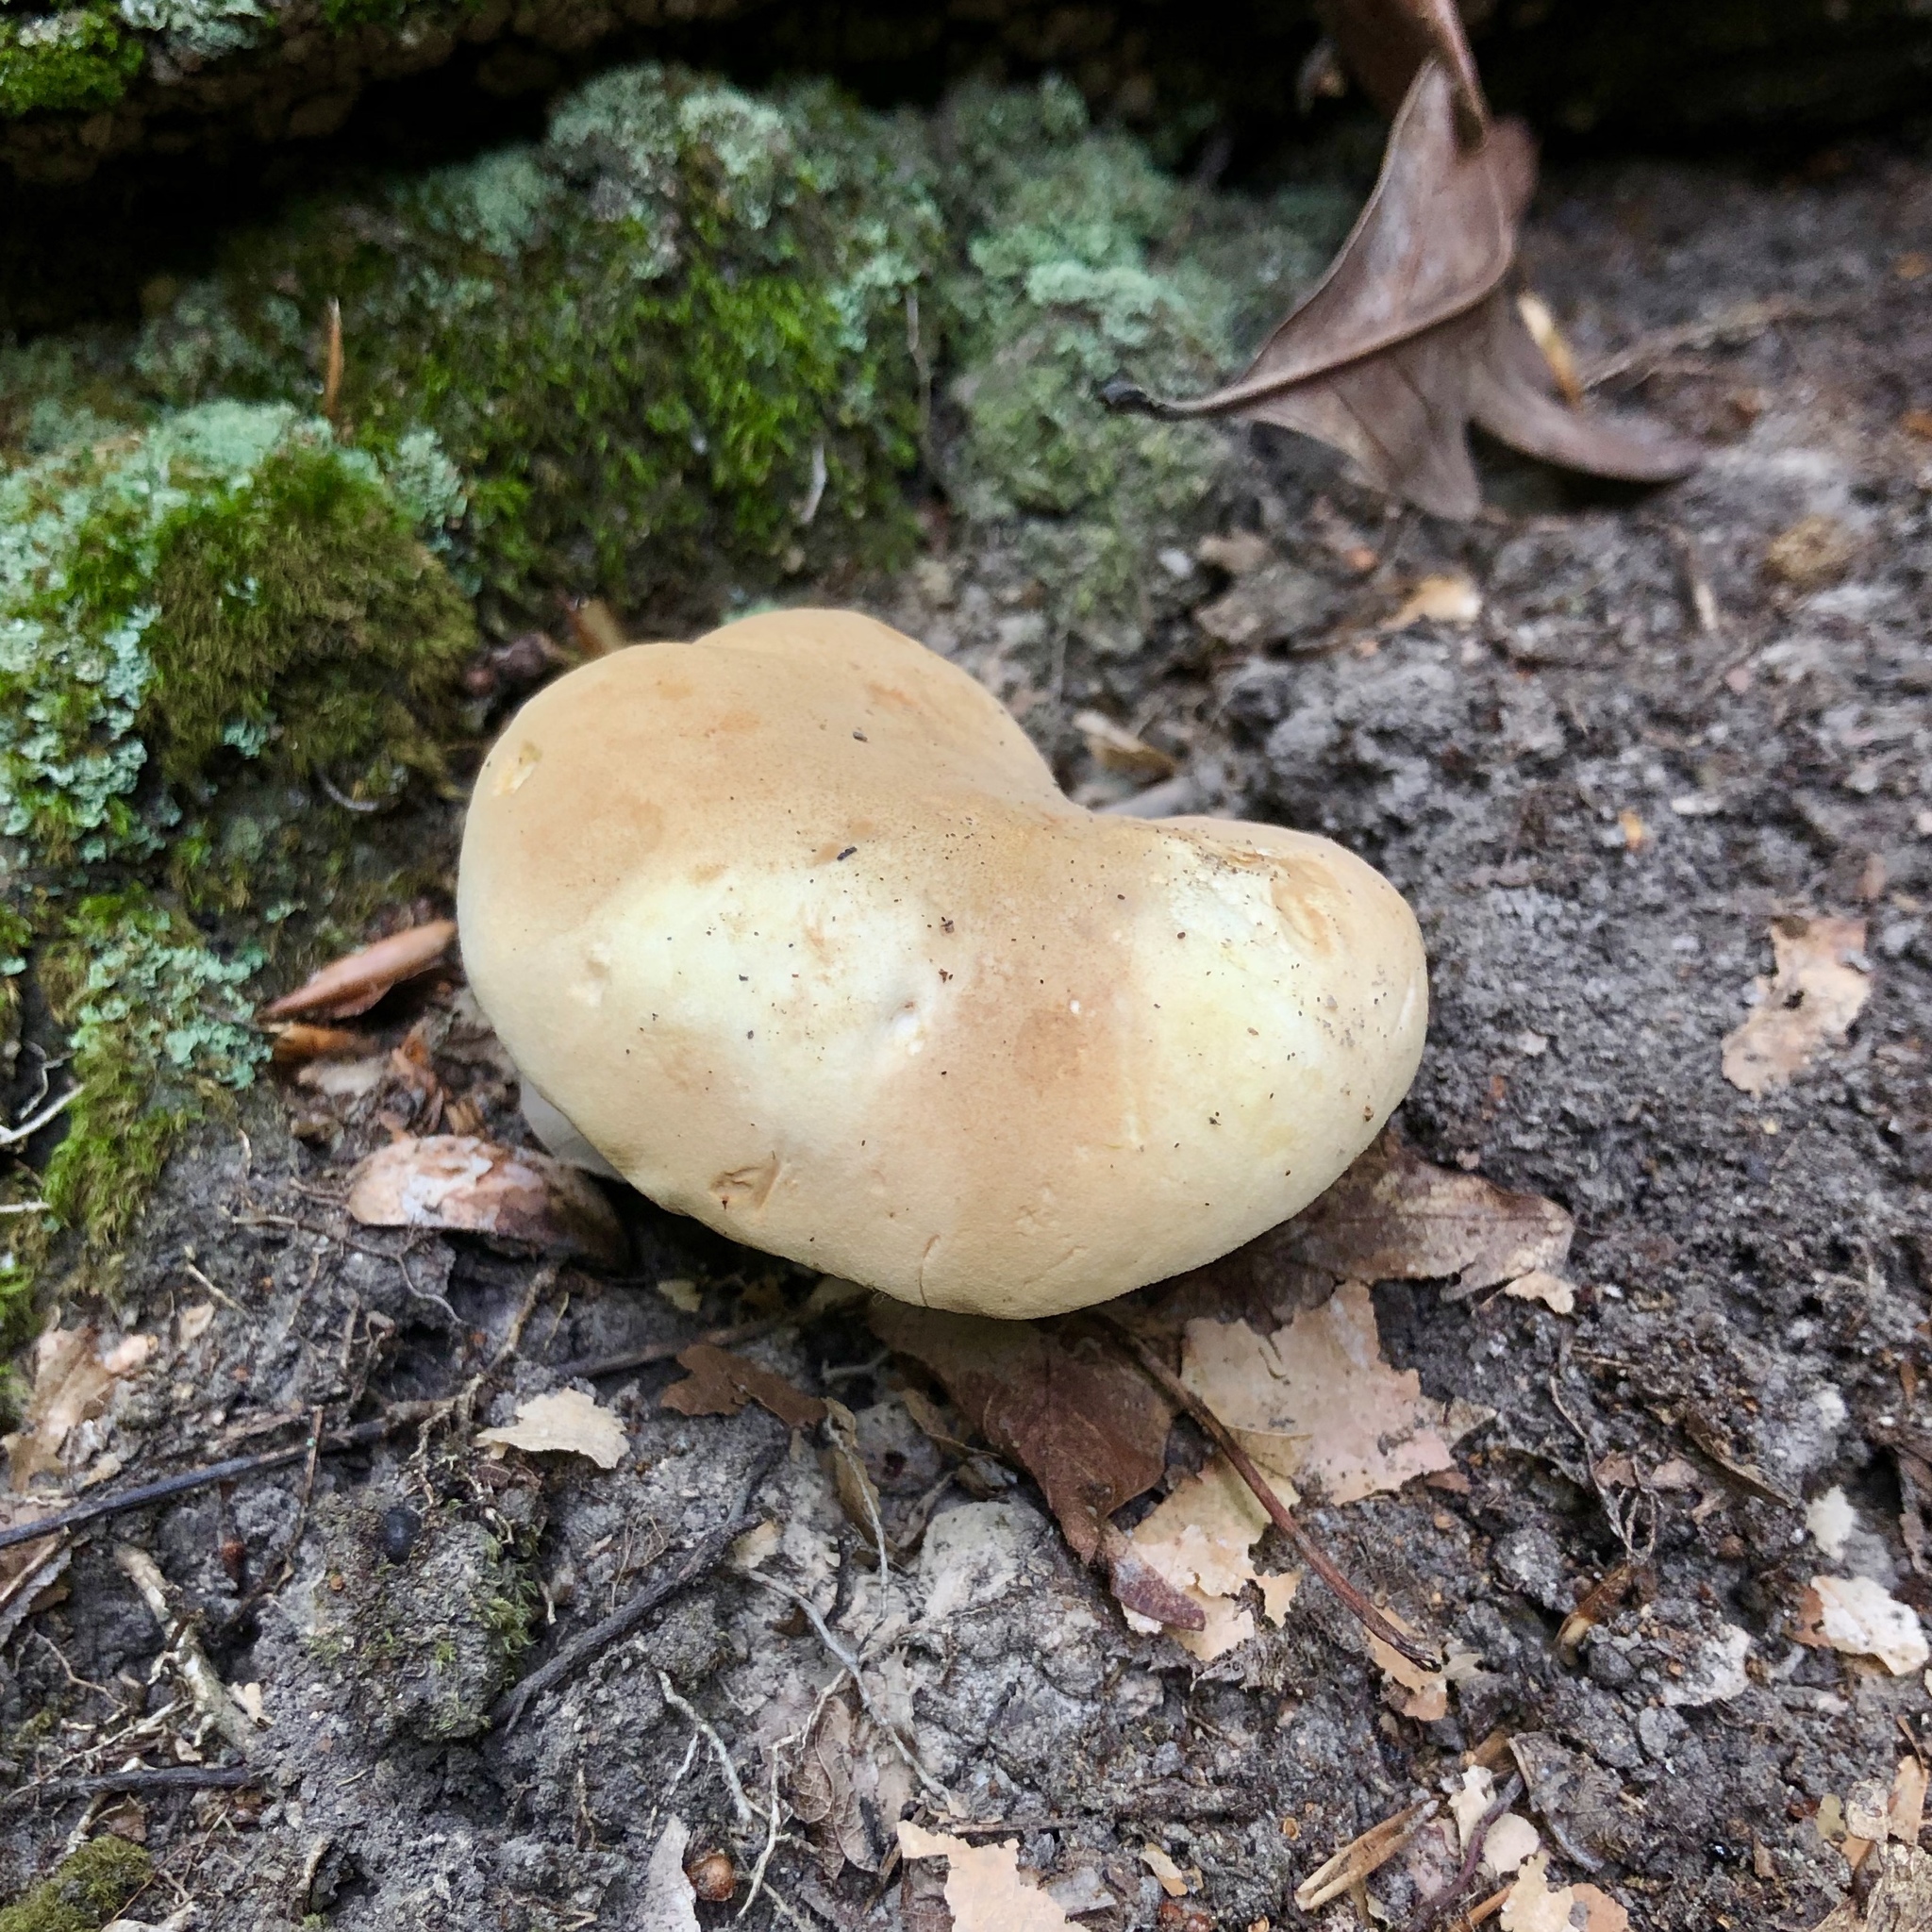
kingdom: Fungi
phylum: Basidiomycota
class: Agaricomycetes
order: Boletales
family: Tapinellaceae
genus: Tapinella
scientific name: Tapinella atrotomentosa
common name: Velvet rollrim
